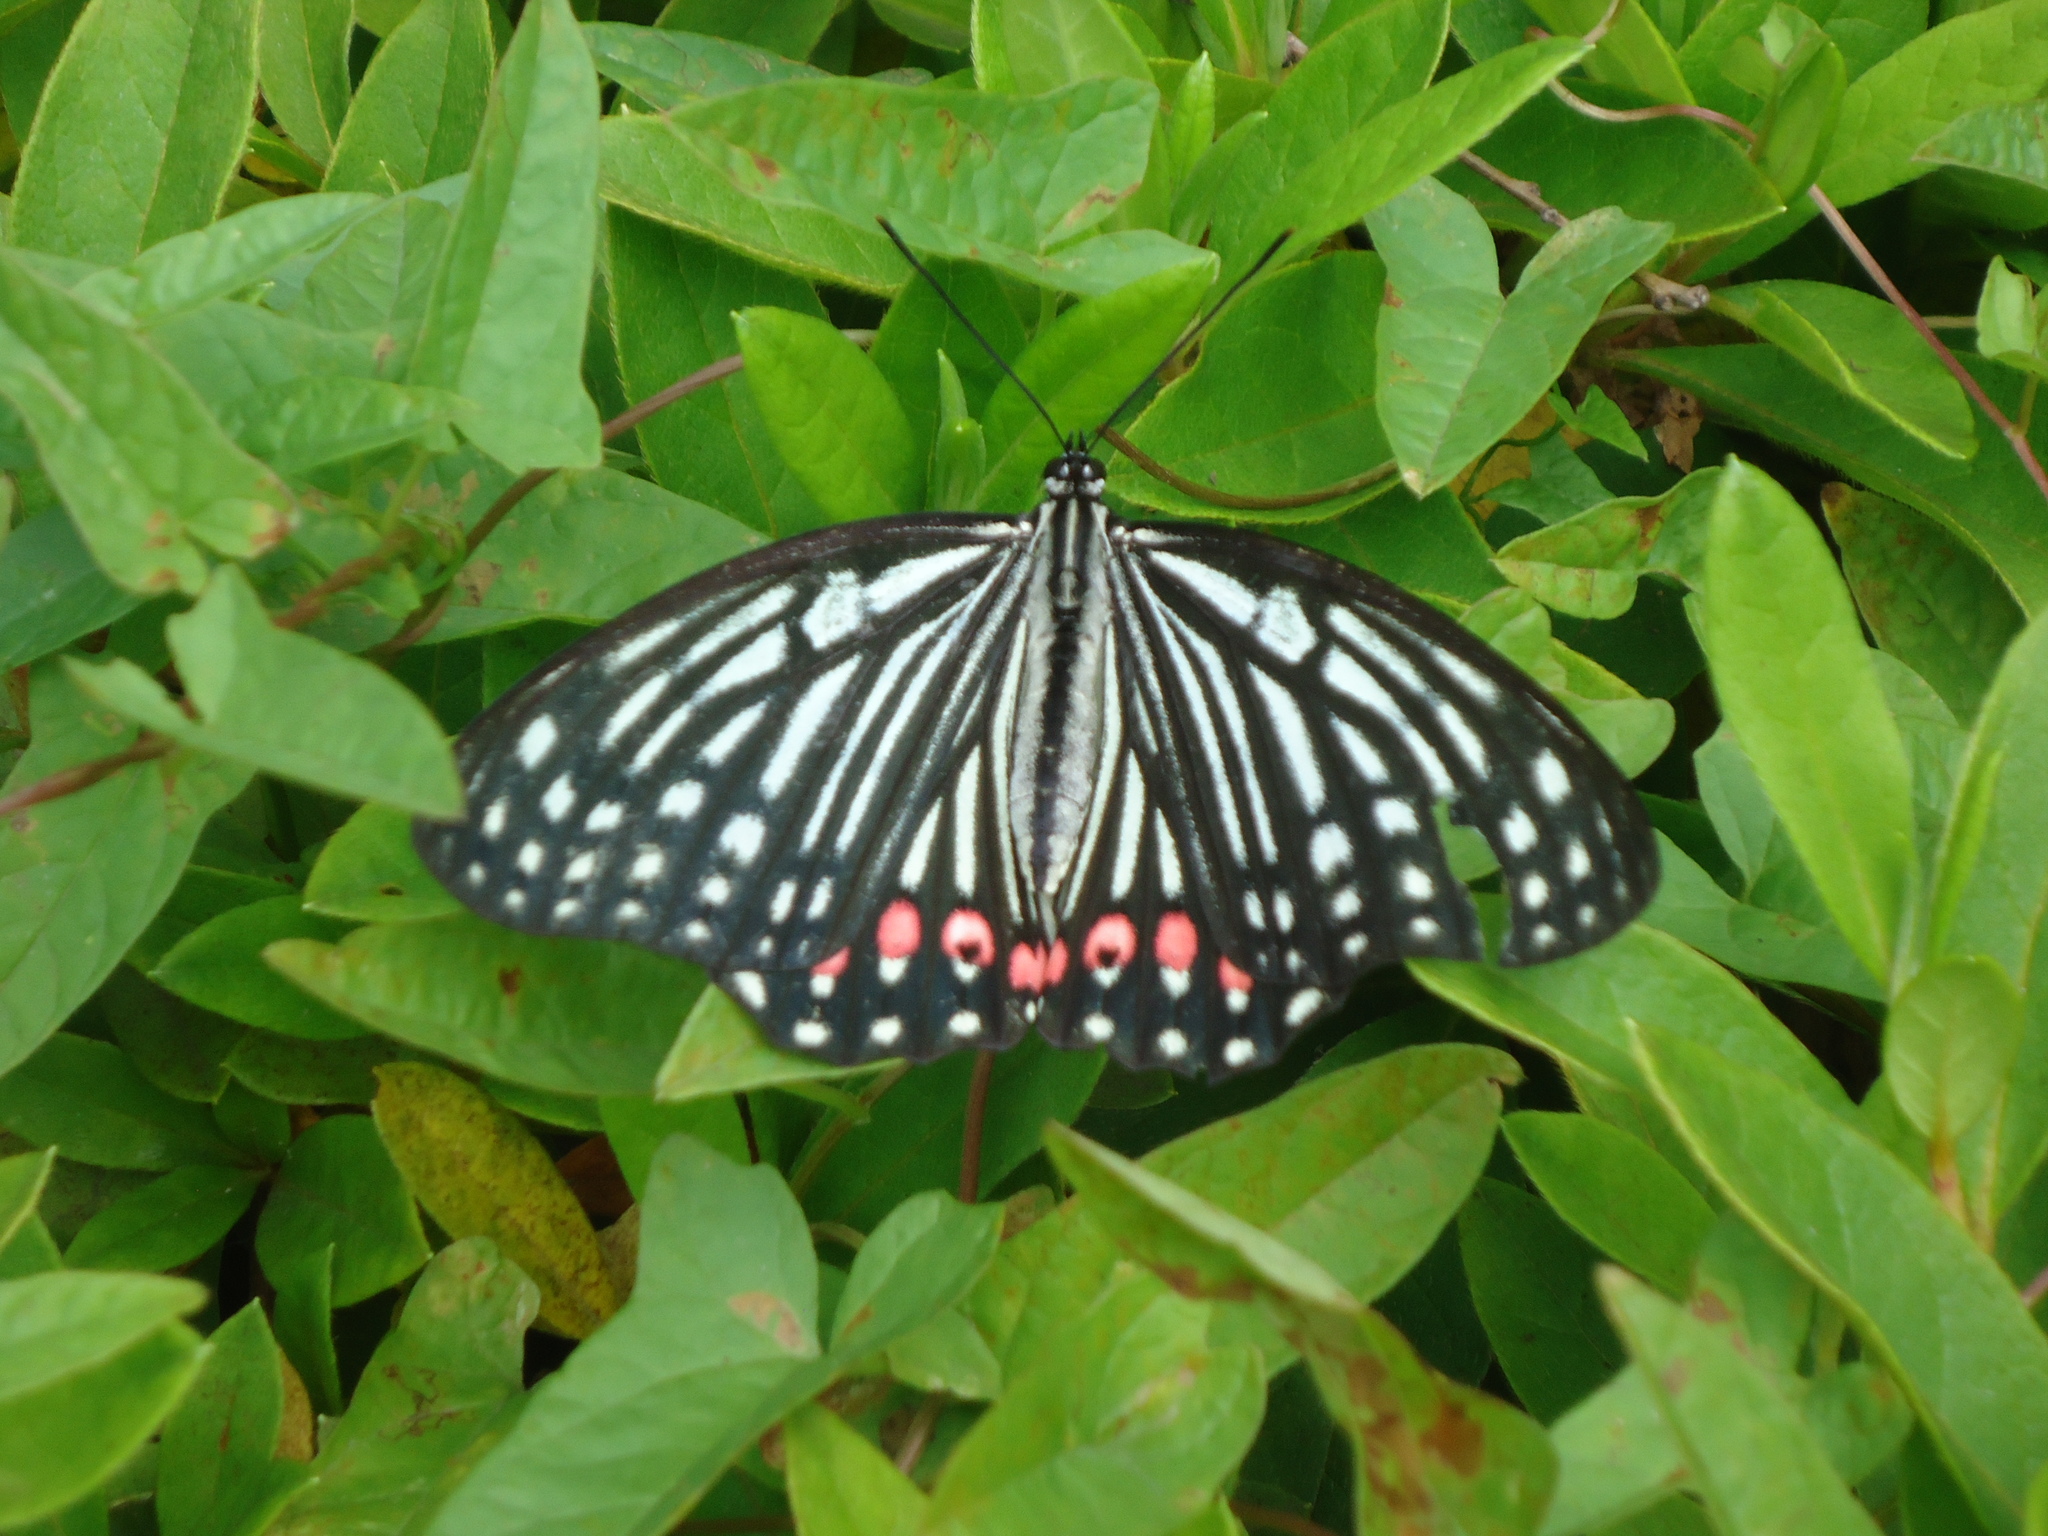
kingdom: Animalia
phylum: Arthropoda
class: Insecta
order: Lepidoptera
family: Nymphalidae
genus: Hestina
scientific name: Hestina assimilis
